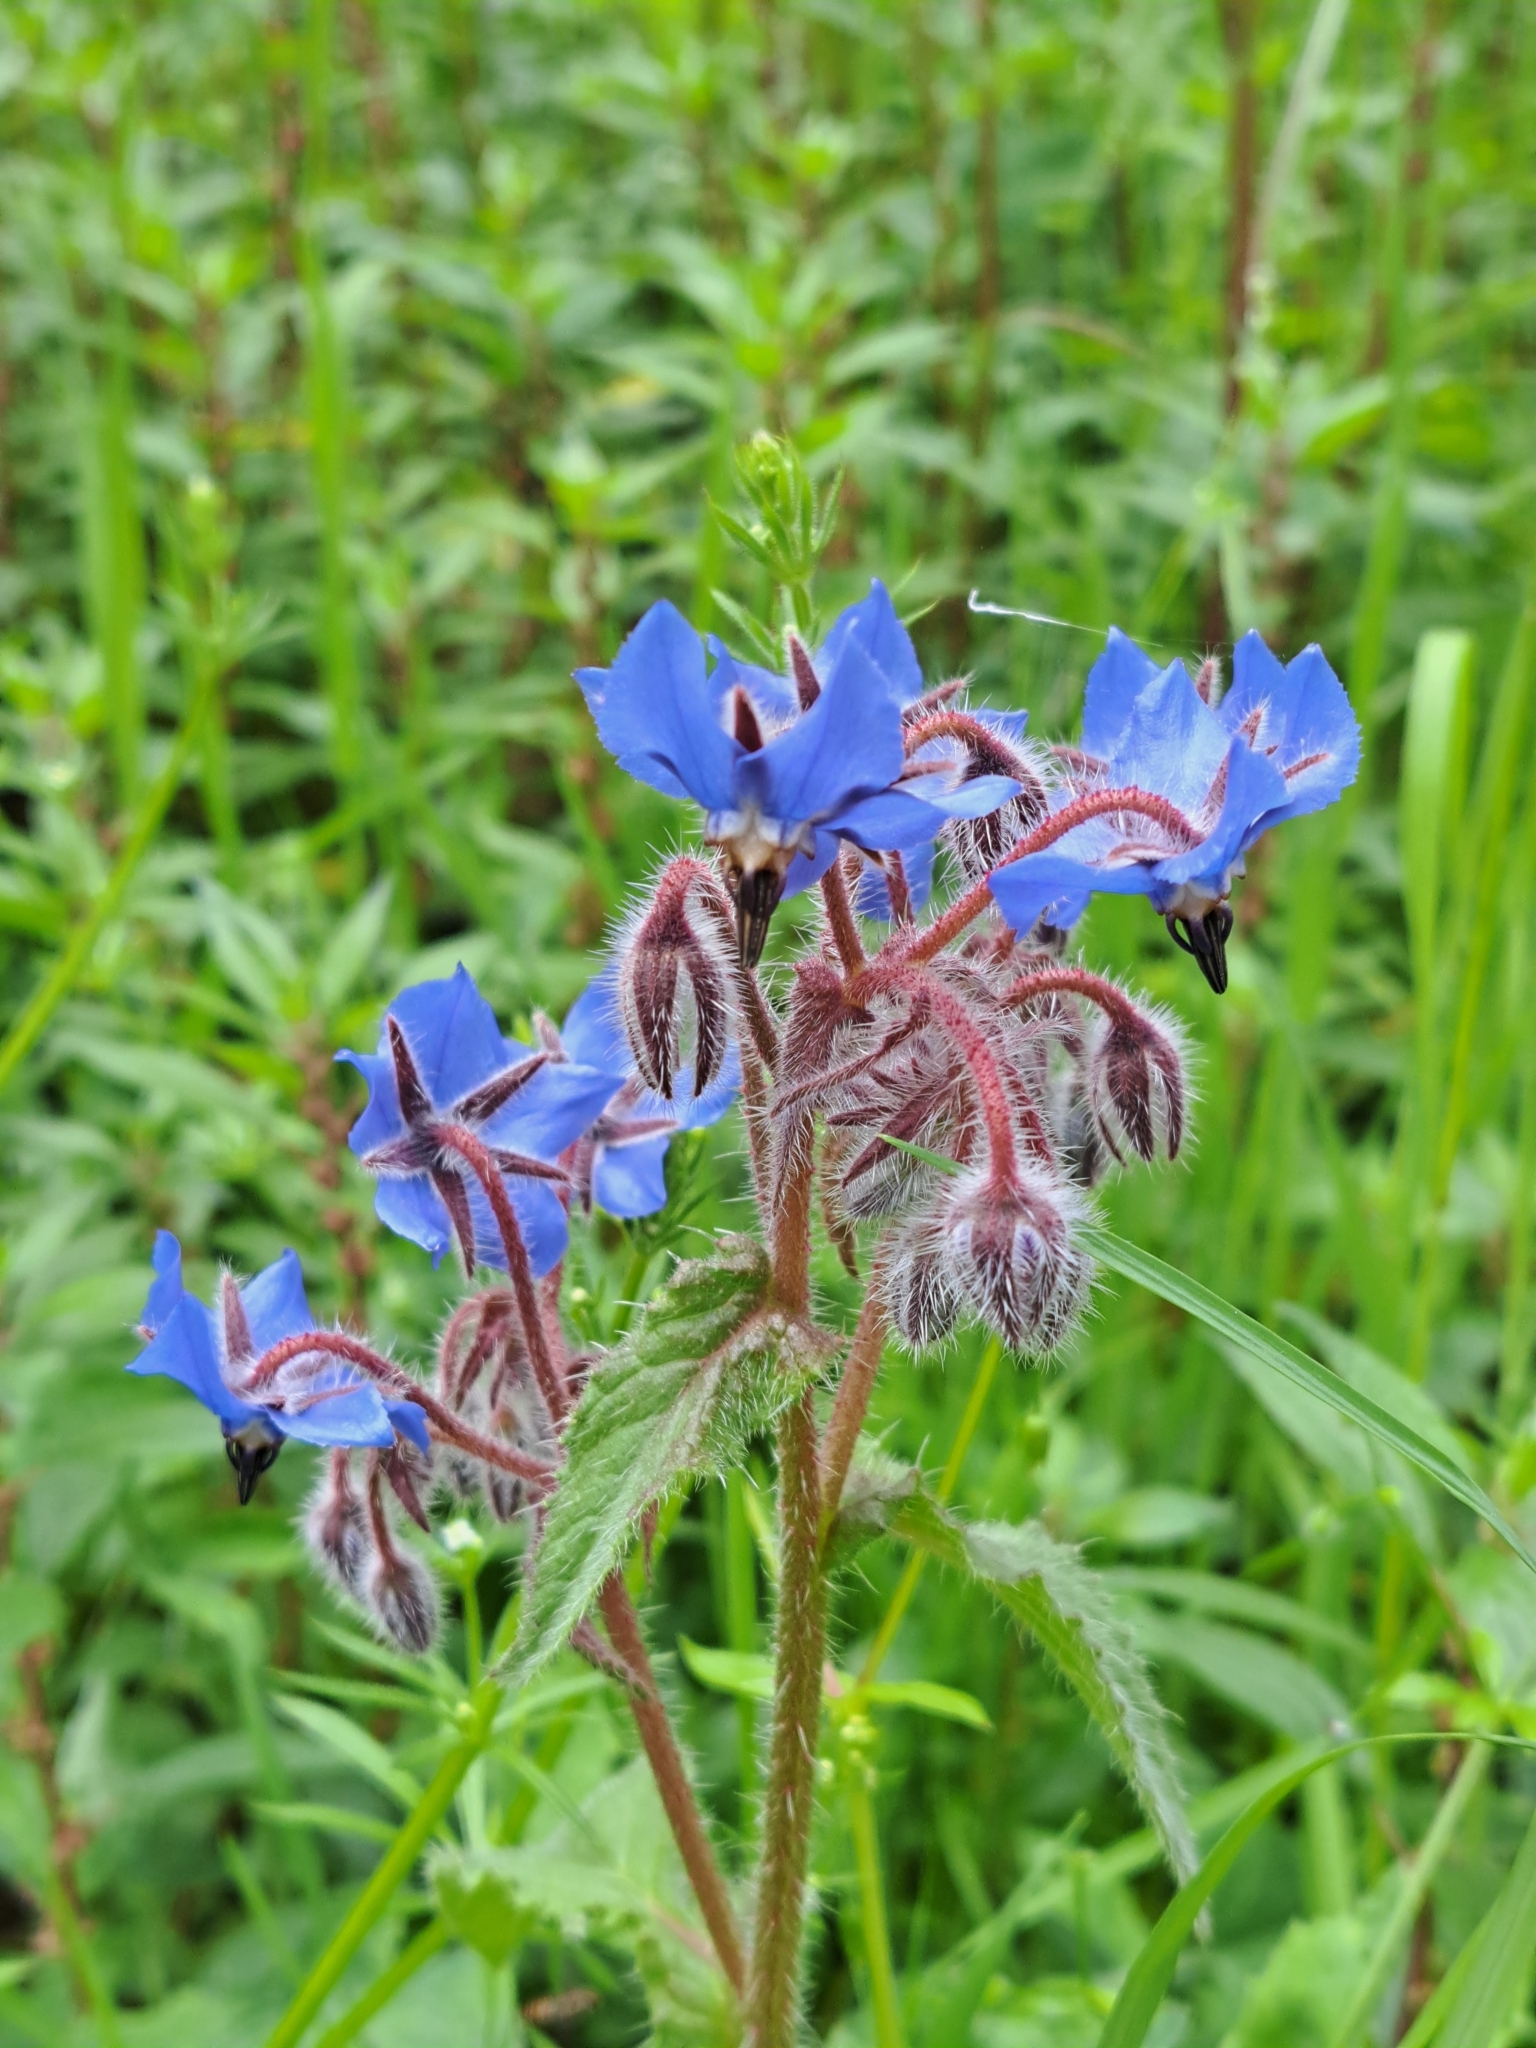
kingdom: Plantae
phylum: Tracheophyta
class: Magnoliopsida
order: Boraginales
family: Boraginaceae
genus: Borago
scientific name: Borago officinalis
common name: Borage
